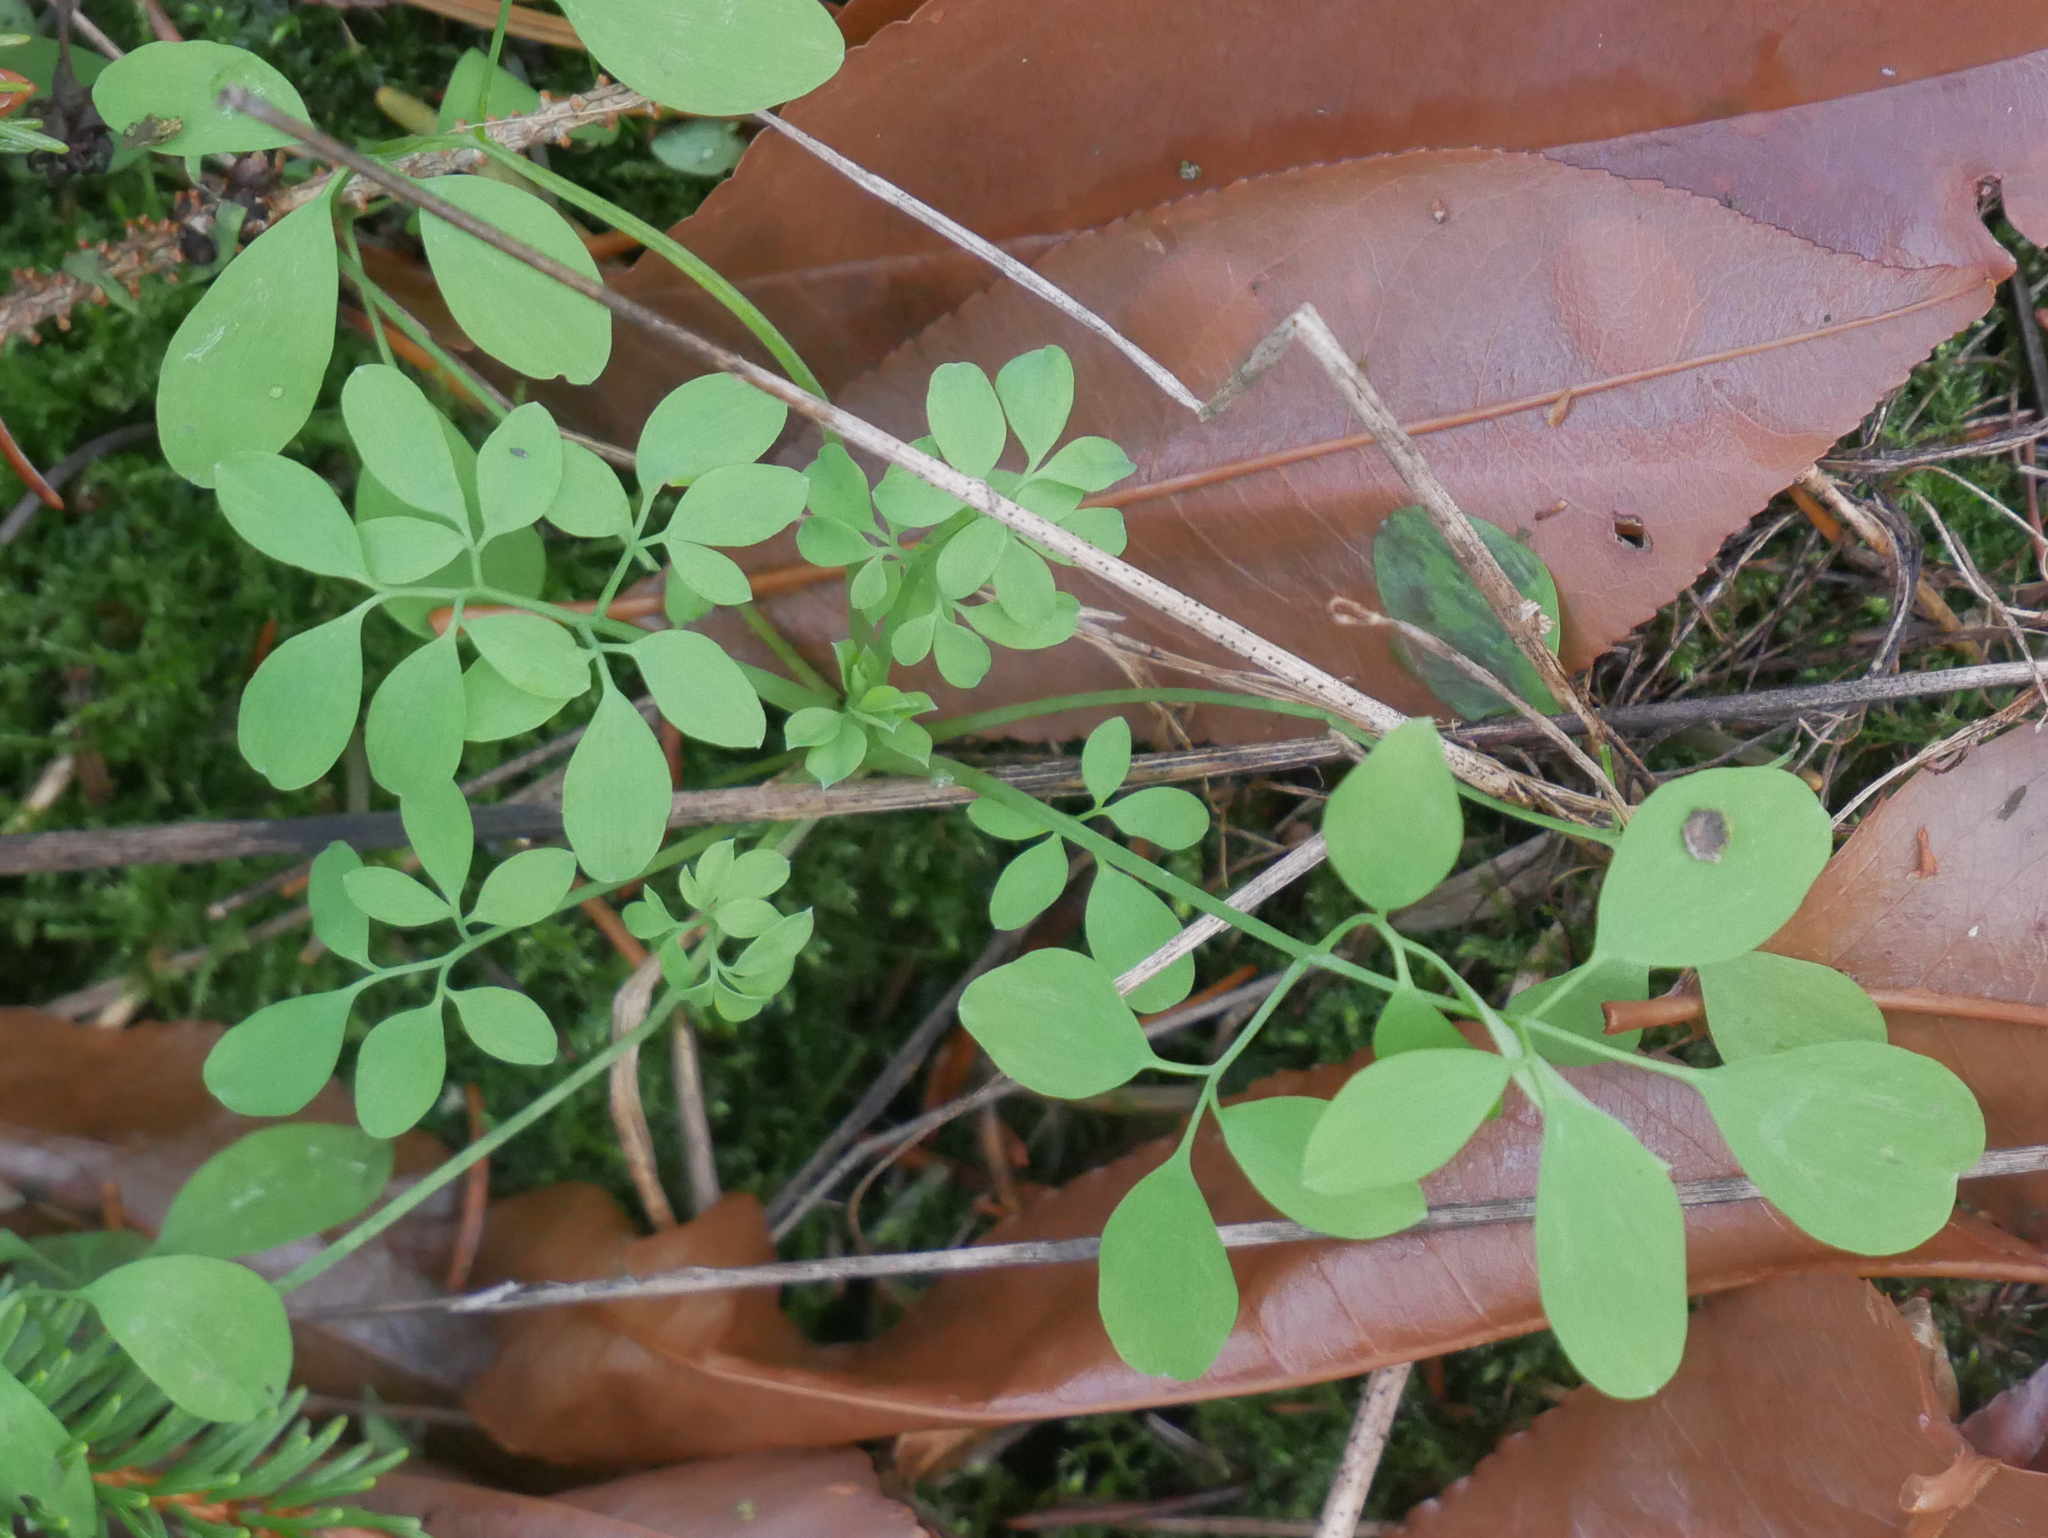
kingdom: Plantae
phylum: Tracheophyta
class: Magnoliopsida
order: Ranunculales
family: Papaveraceae
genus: Ceratocapnos
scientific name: Ceratocapnos claviculata
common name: Climbing corydalis
